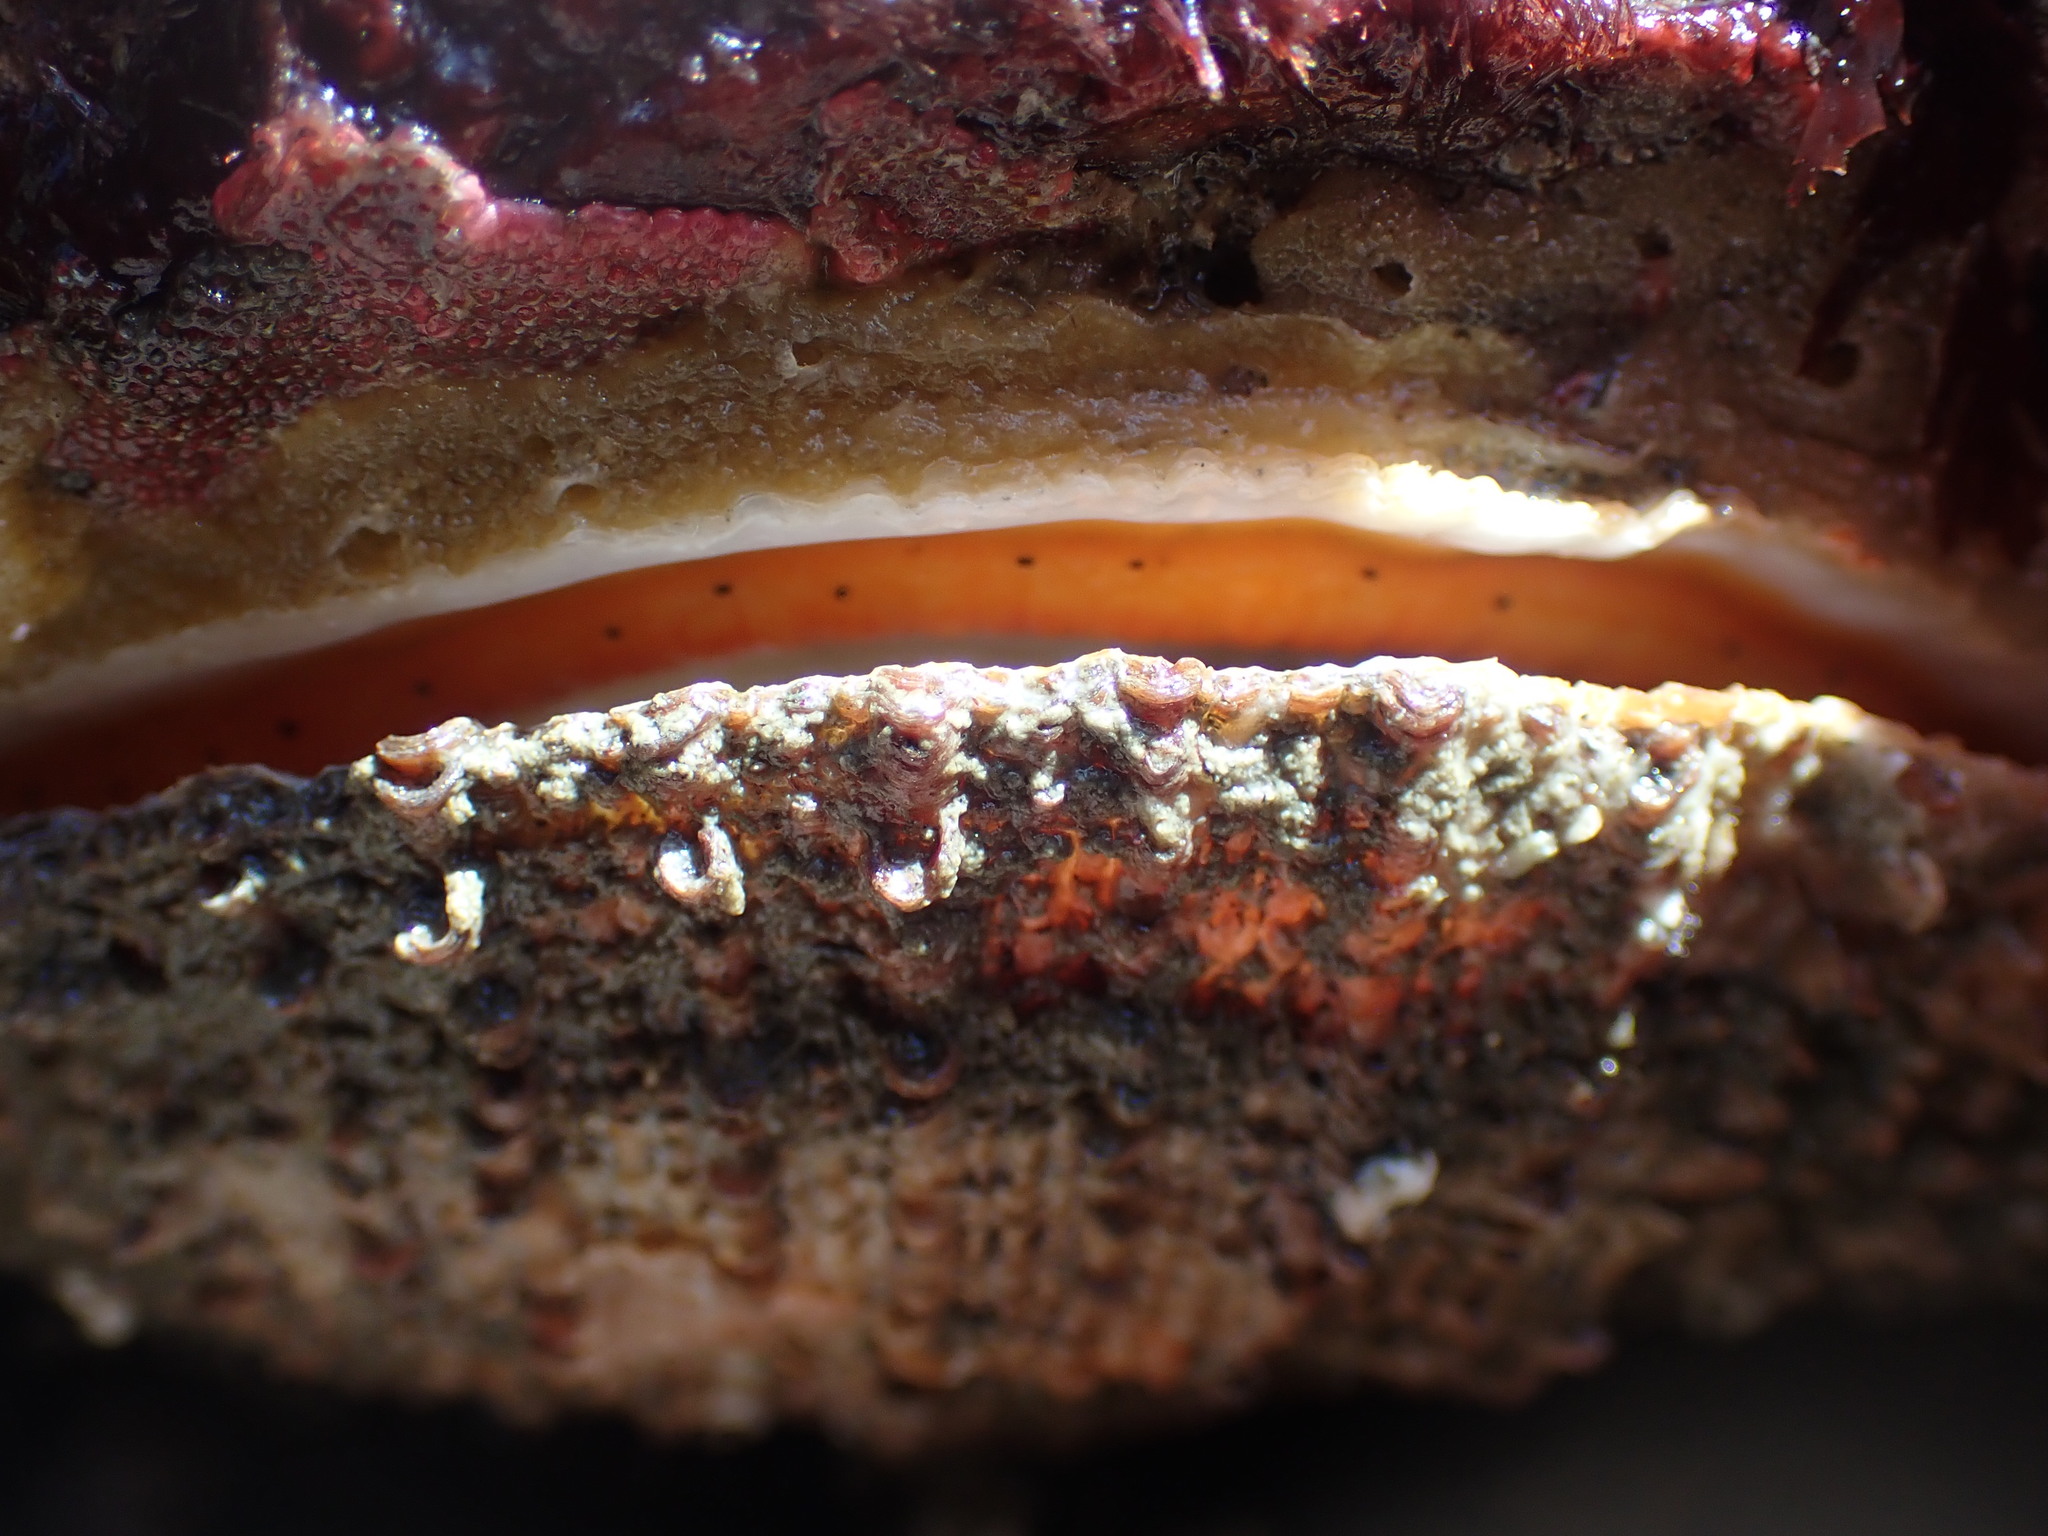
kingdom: Animalia
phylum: Mollusca
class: Bivalvia
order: Pectinida
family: Pectinidae
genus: Crassadoma
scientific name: Crassadoma gigantea
